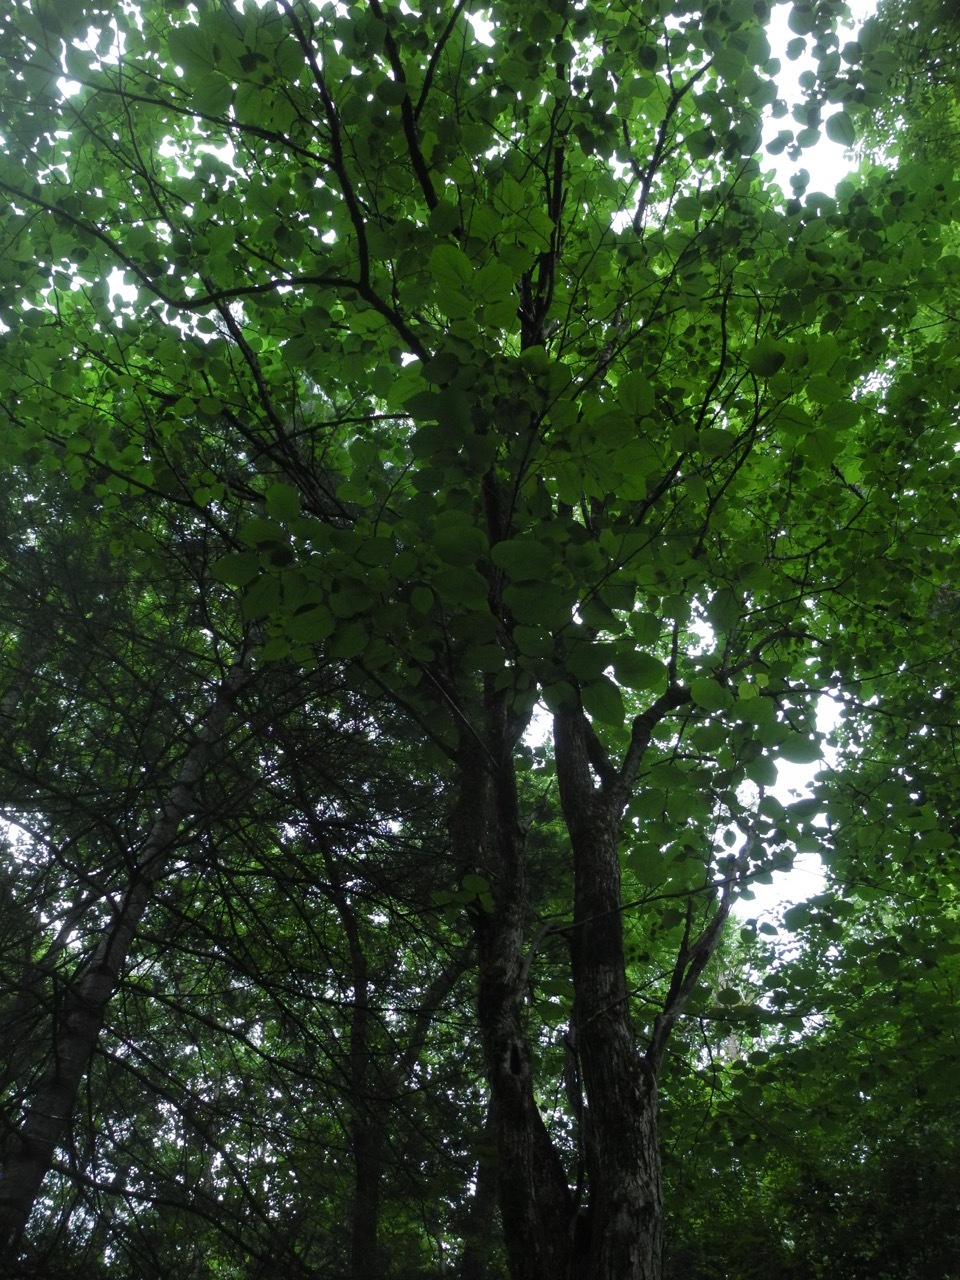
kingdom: Plantae
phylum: Tracheophyta
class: Magnoliopsida
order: Malvales
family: Malvaceae
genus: Tilia
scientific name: Tilia americana
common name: Basswood
